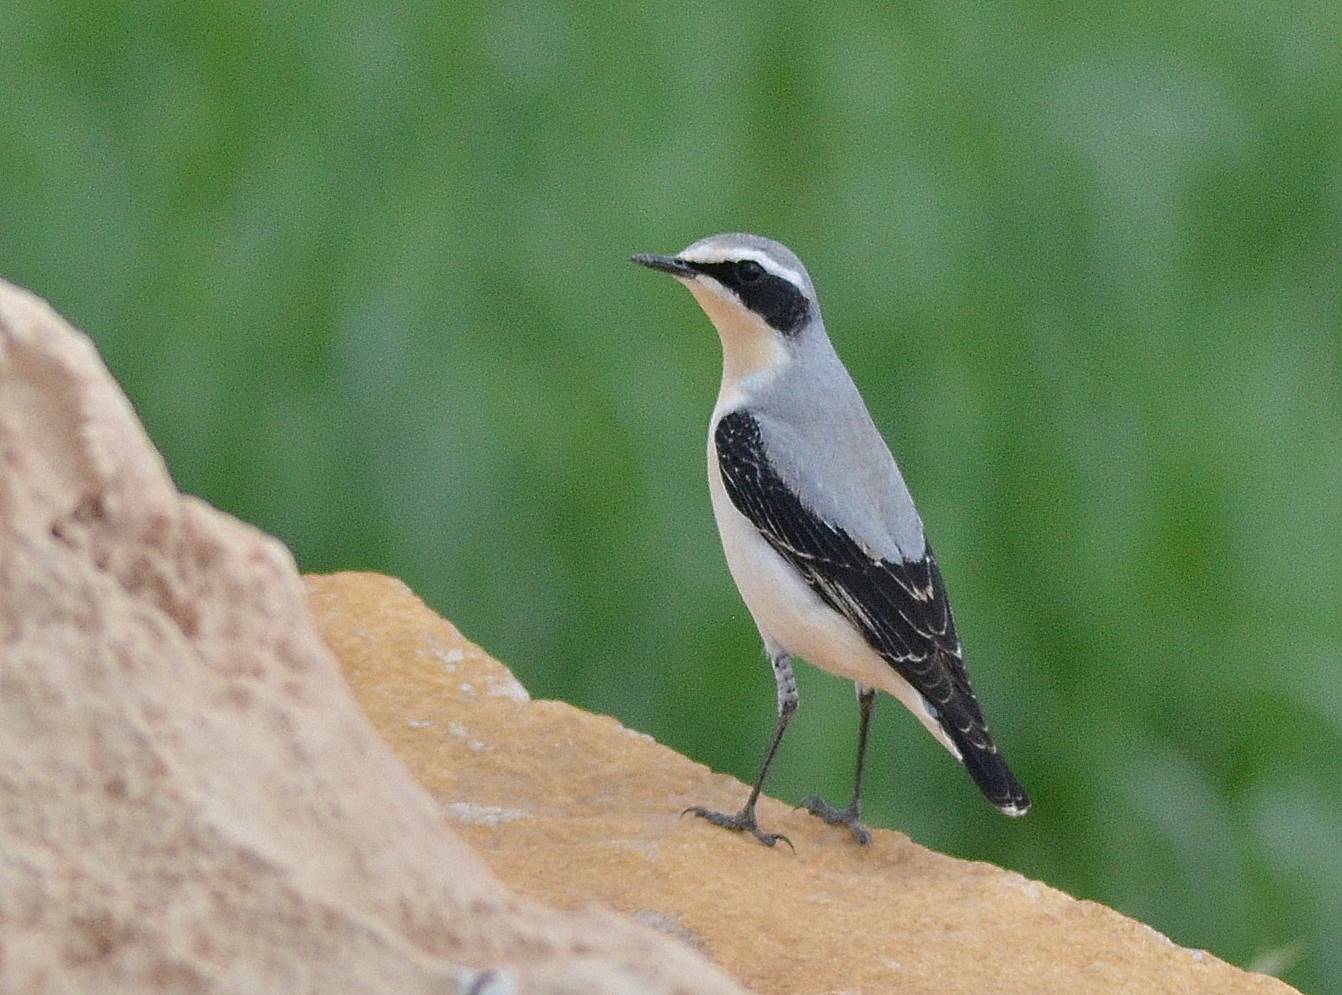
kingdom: Animalia
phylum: Chordata
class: Aves
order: Passeriformes
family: Muscicapidae
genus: Oenanthe
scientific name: Oenanthe oenanthe
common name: Northern wheatear
